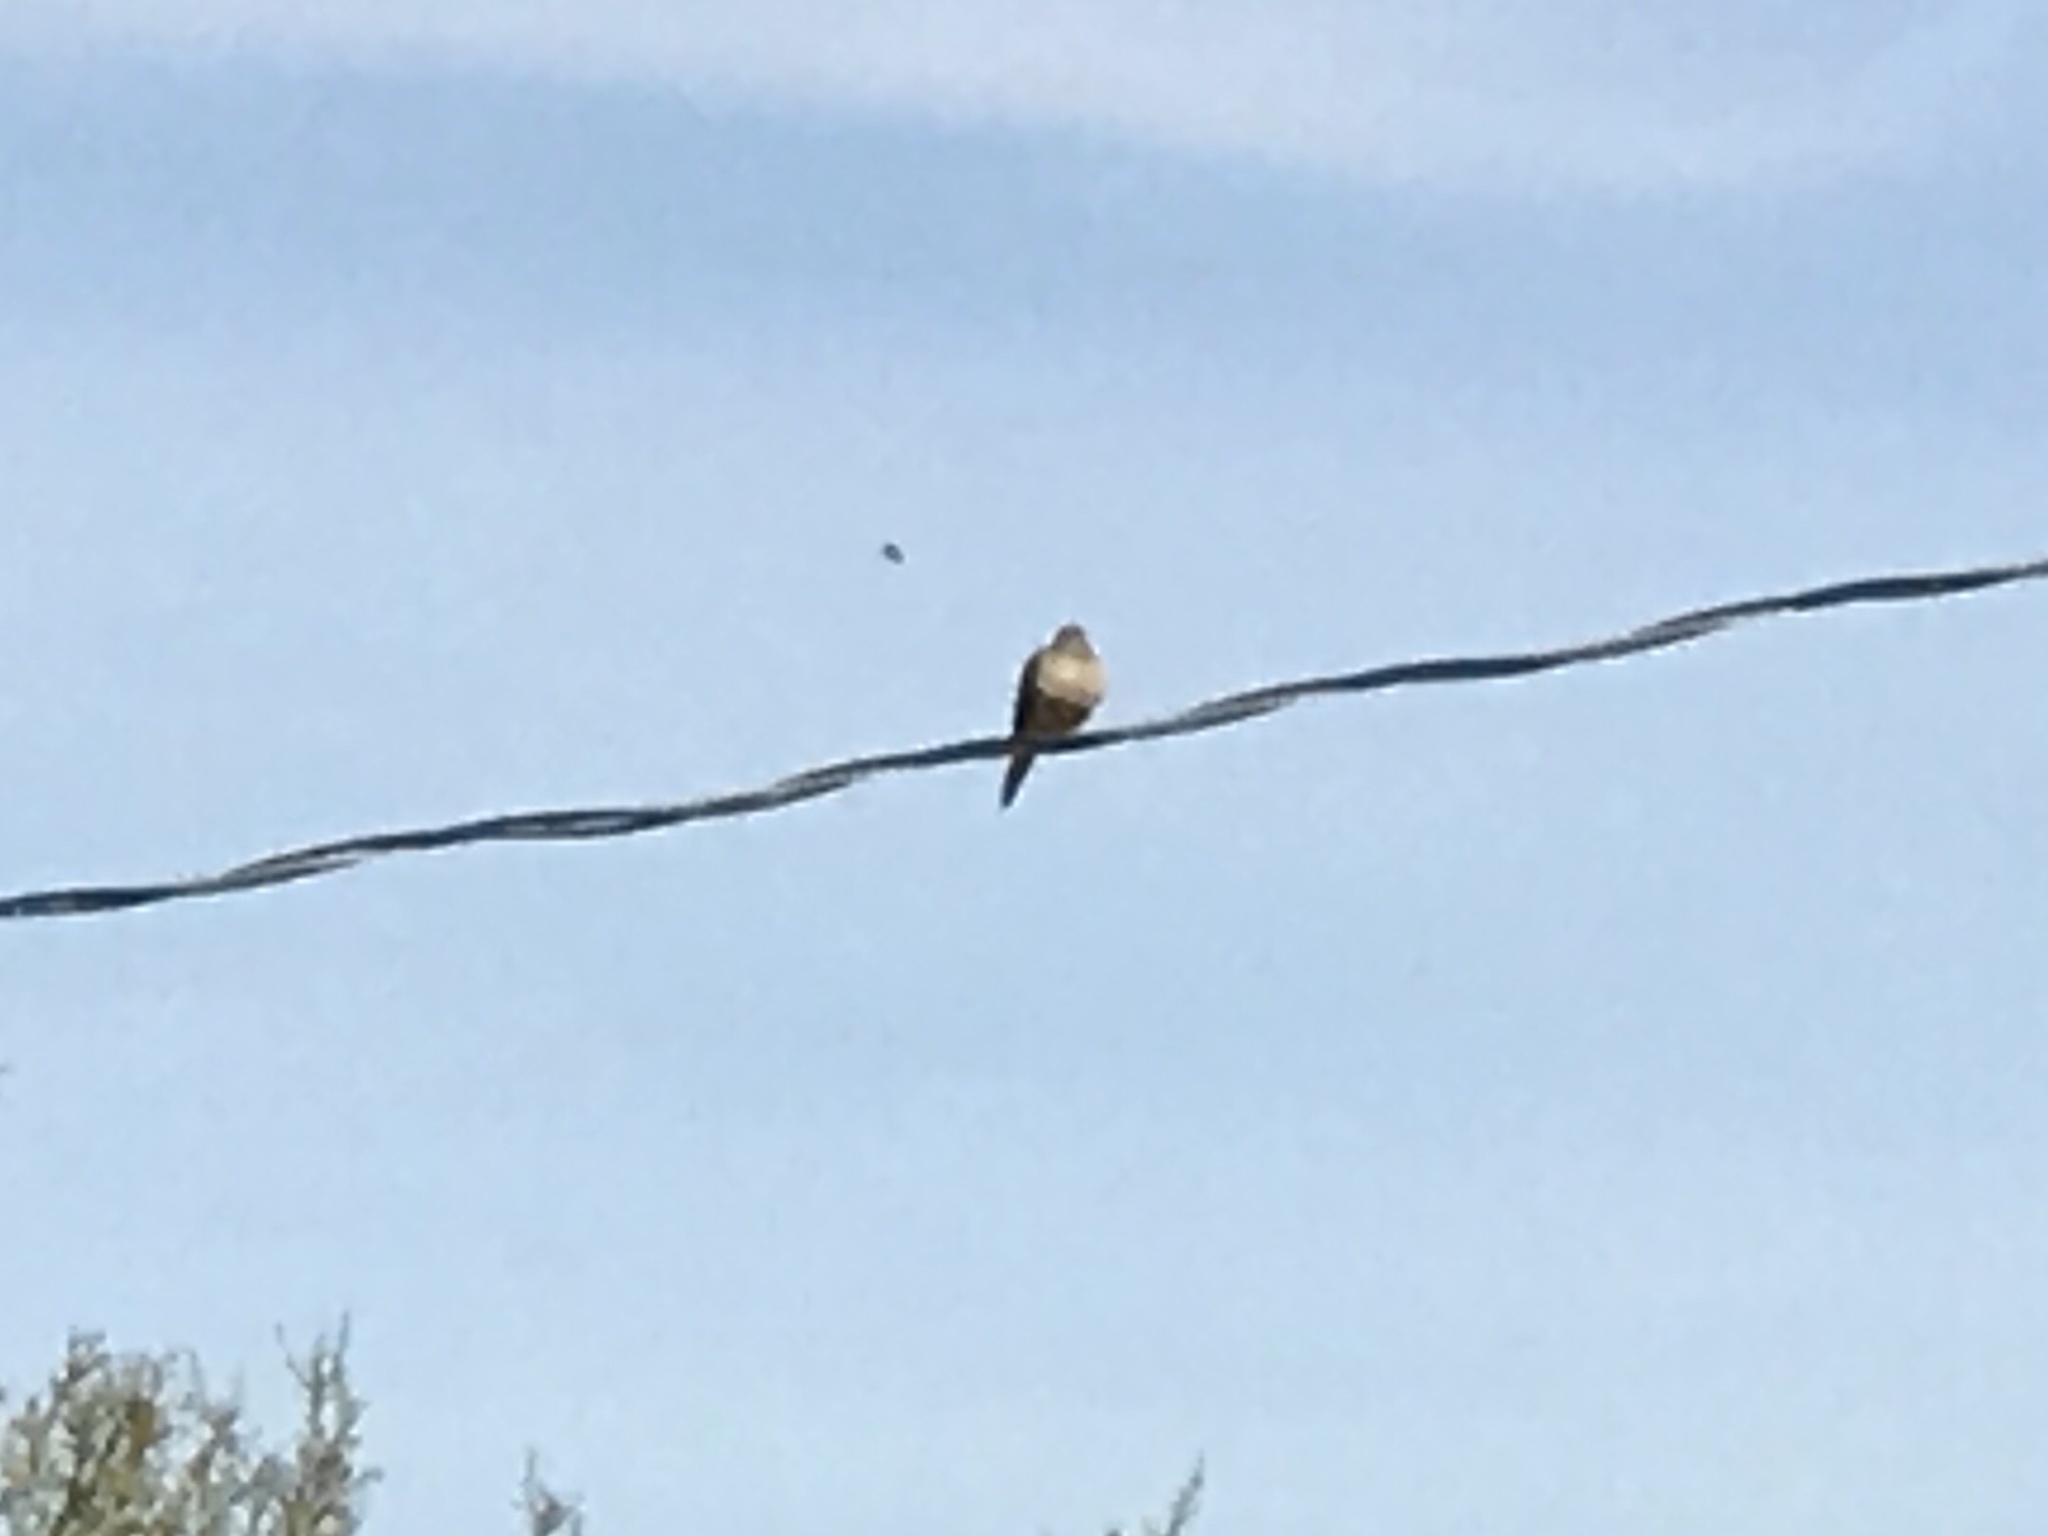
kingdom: Animalia
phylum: Chordata
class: Aves
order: Columbiformes
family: Columbidae
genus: Zenaida
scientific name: Zenaida macroura
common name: Mourning dove
